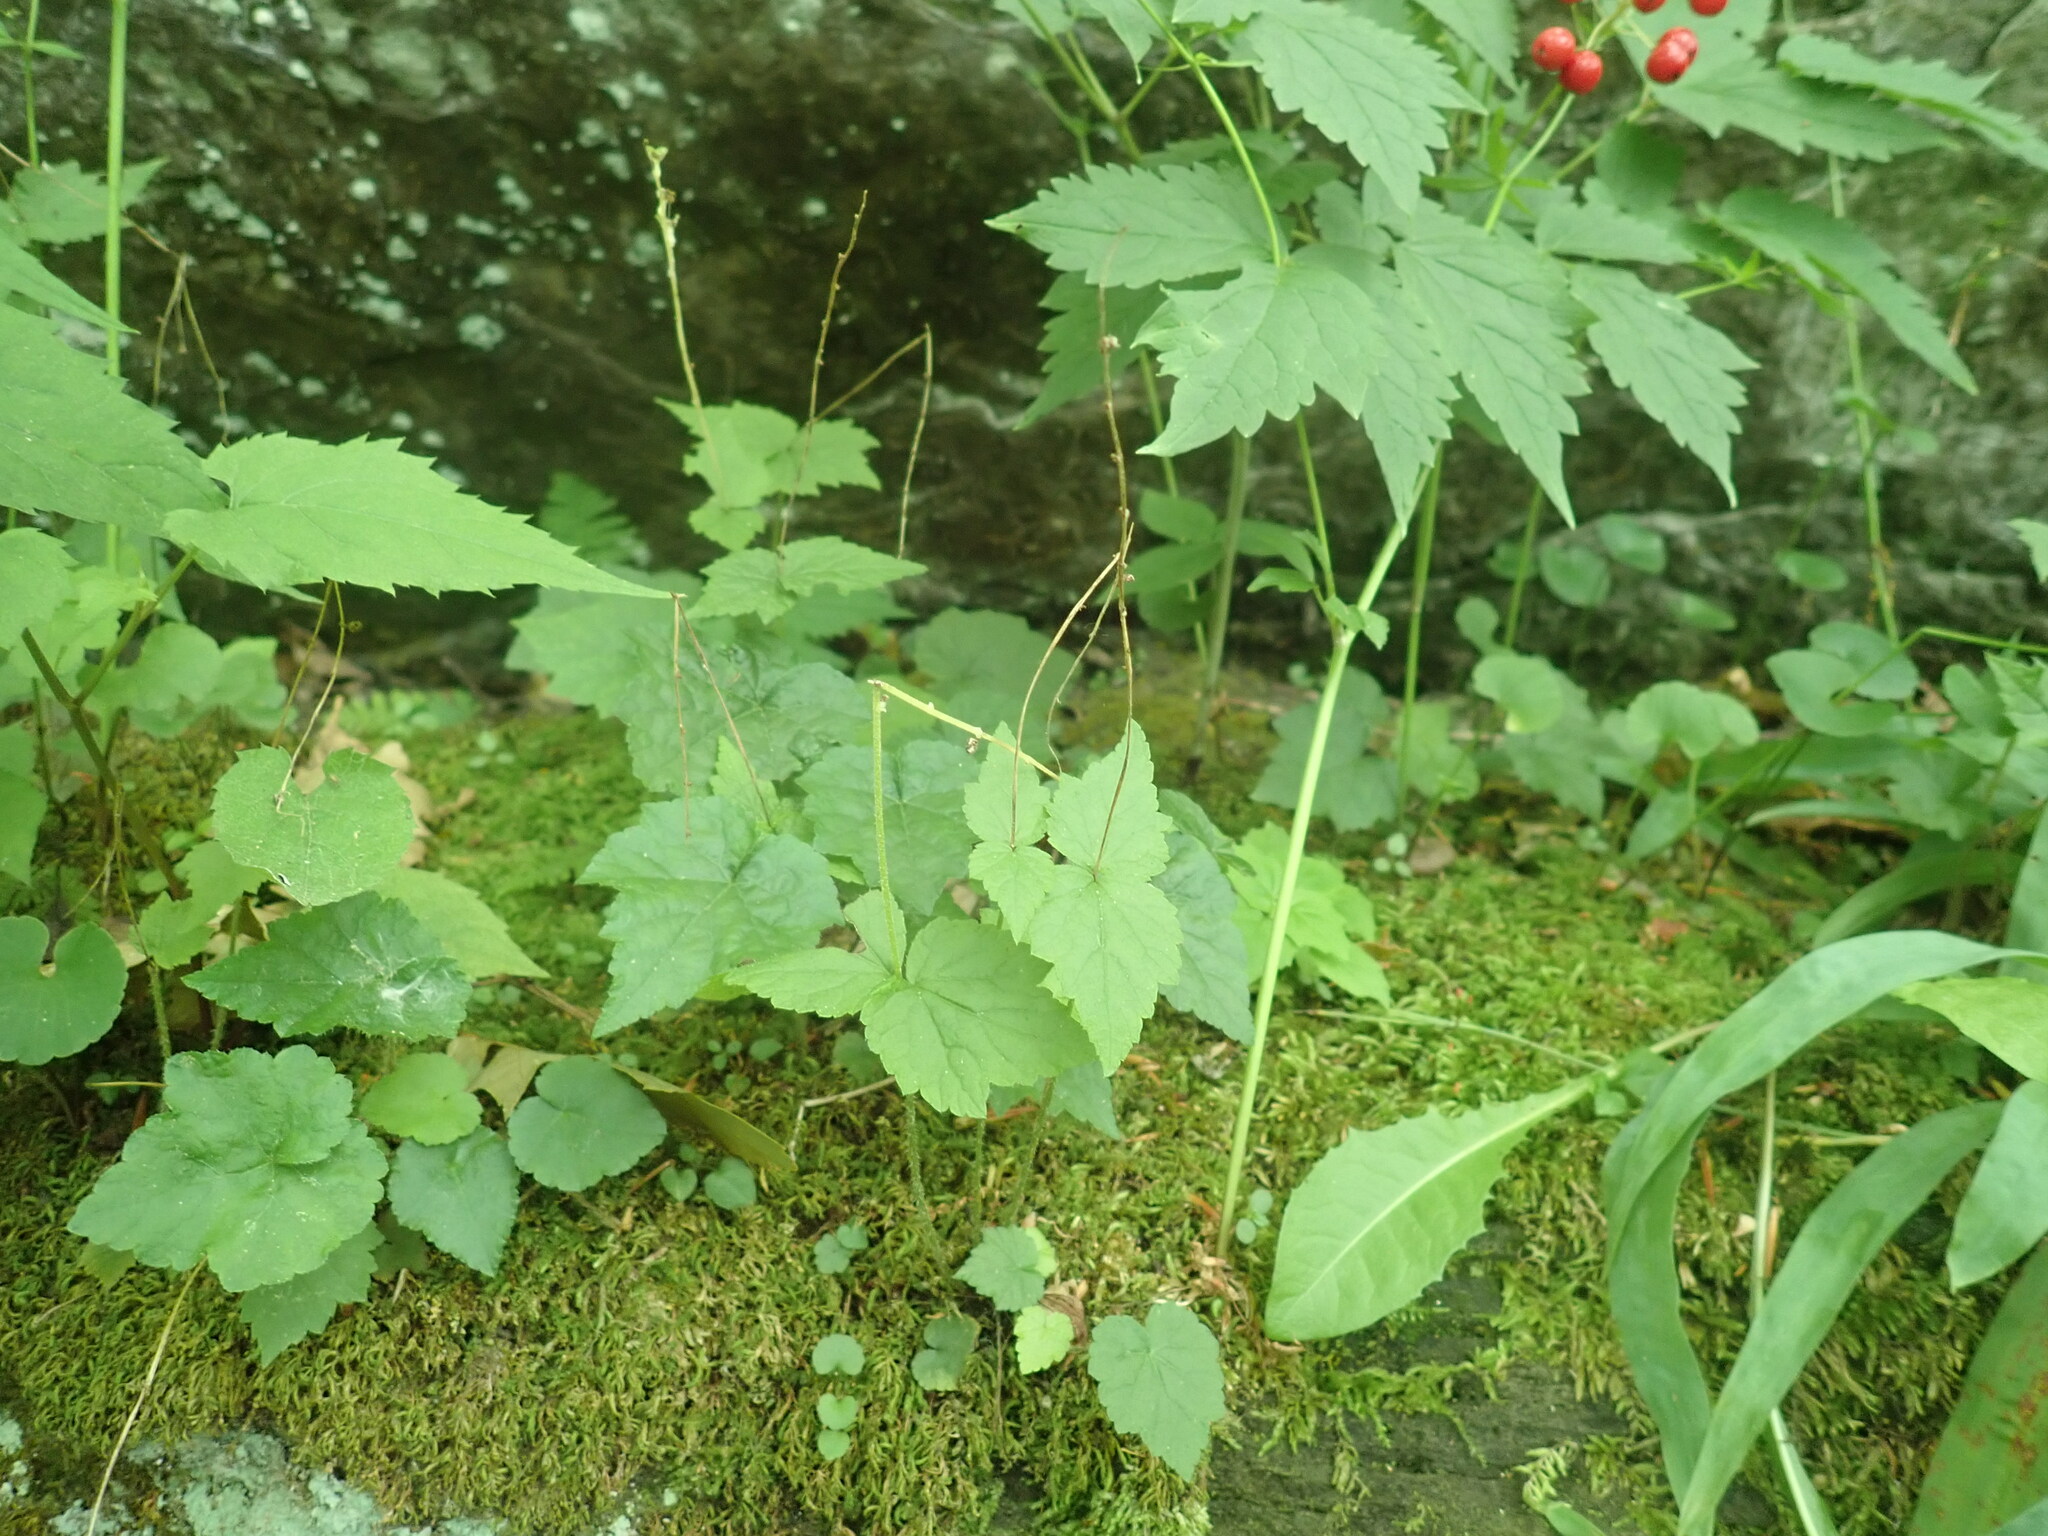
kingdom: Plantae
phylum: Tracheophyta
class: Magnoliopsida
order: Saxifragales
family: Saxifragaceae
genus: Mitella
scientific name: Mitella diphylla
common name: Coolwort
